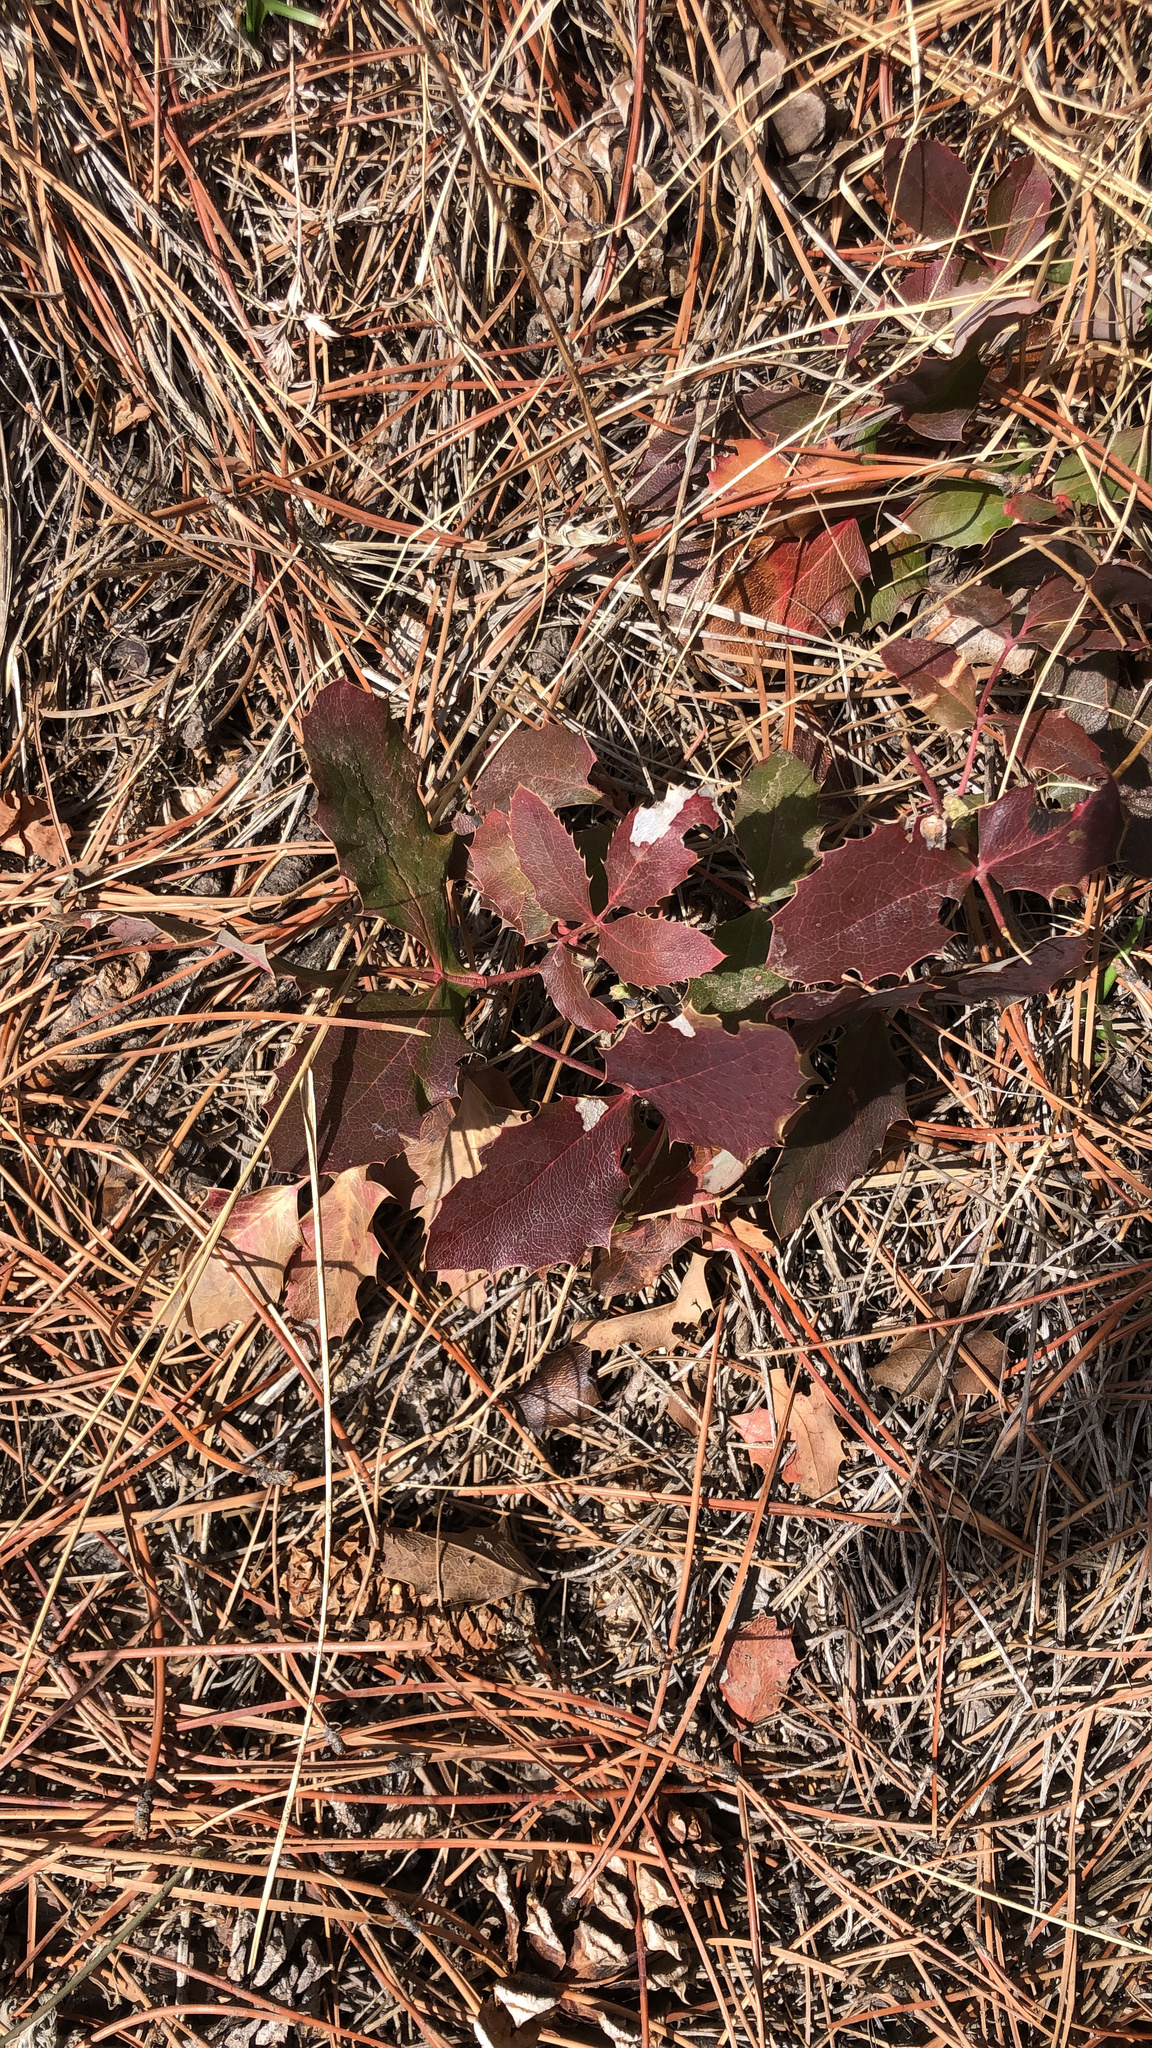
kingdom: Plantae
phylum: Tracheophyta
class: Magnoliopsida
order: Ranunculales
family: Berberidaceae
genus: Mahonia
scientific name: Mahonia repens
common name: Creeping oregon-grape
